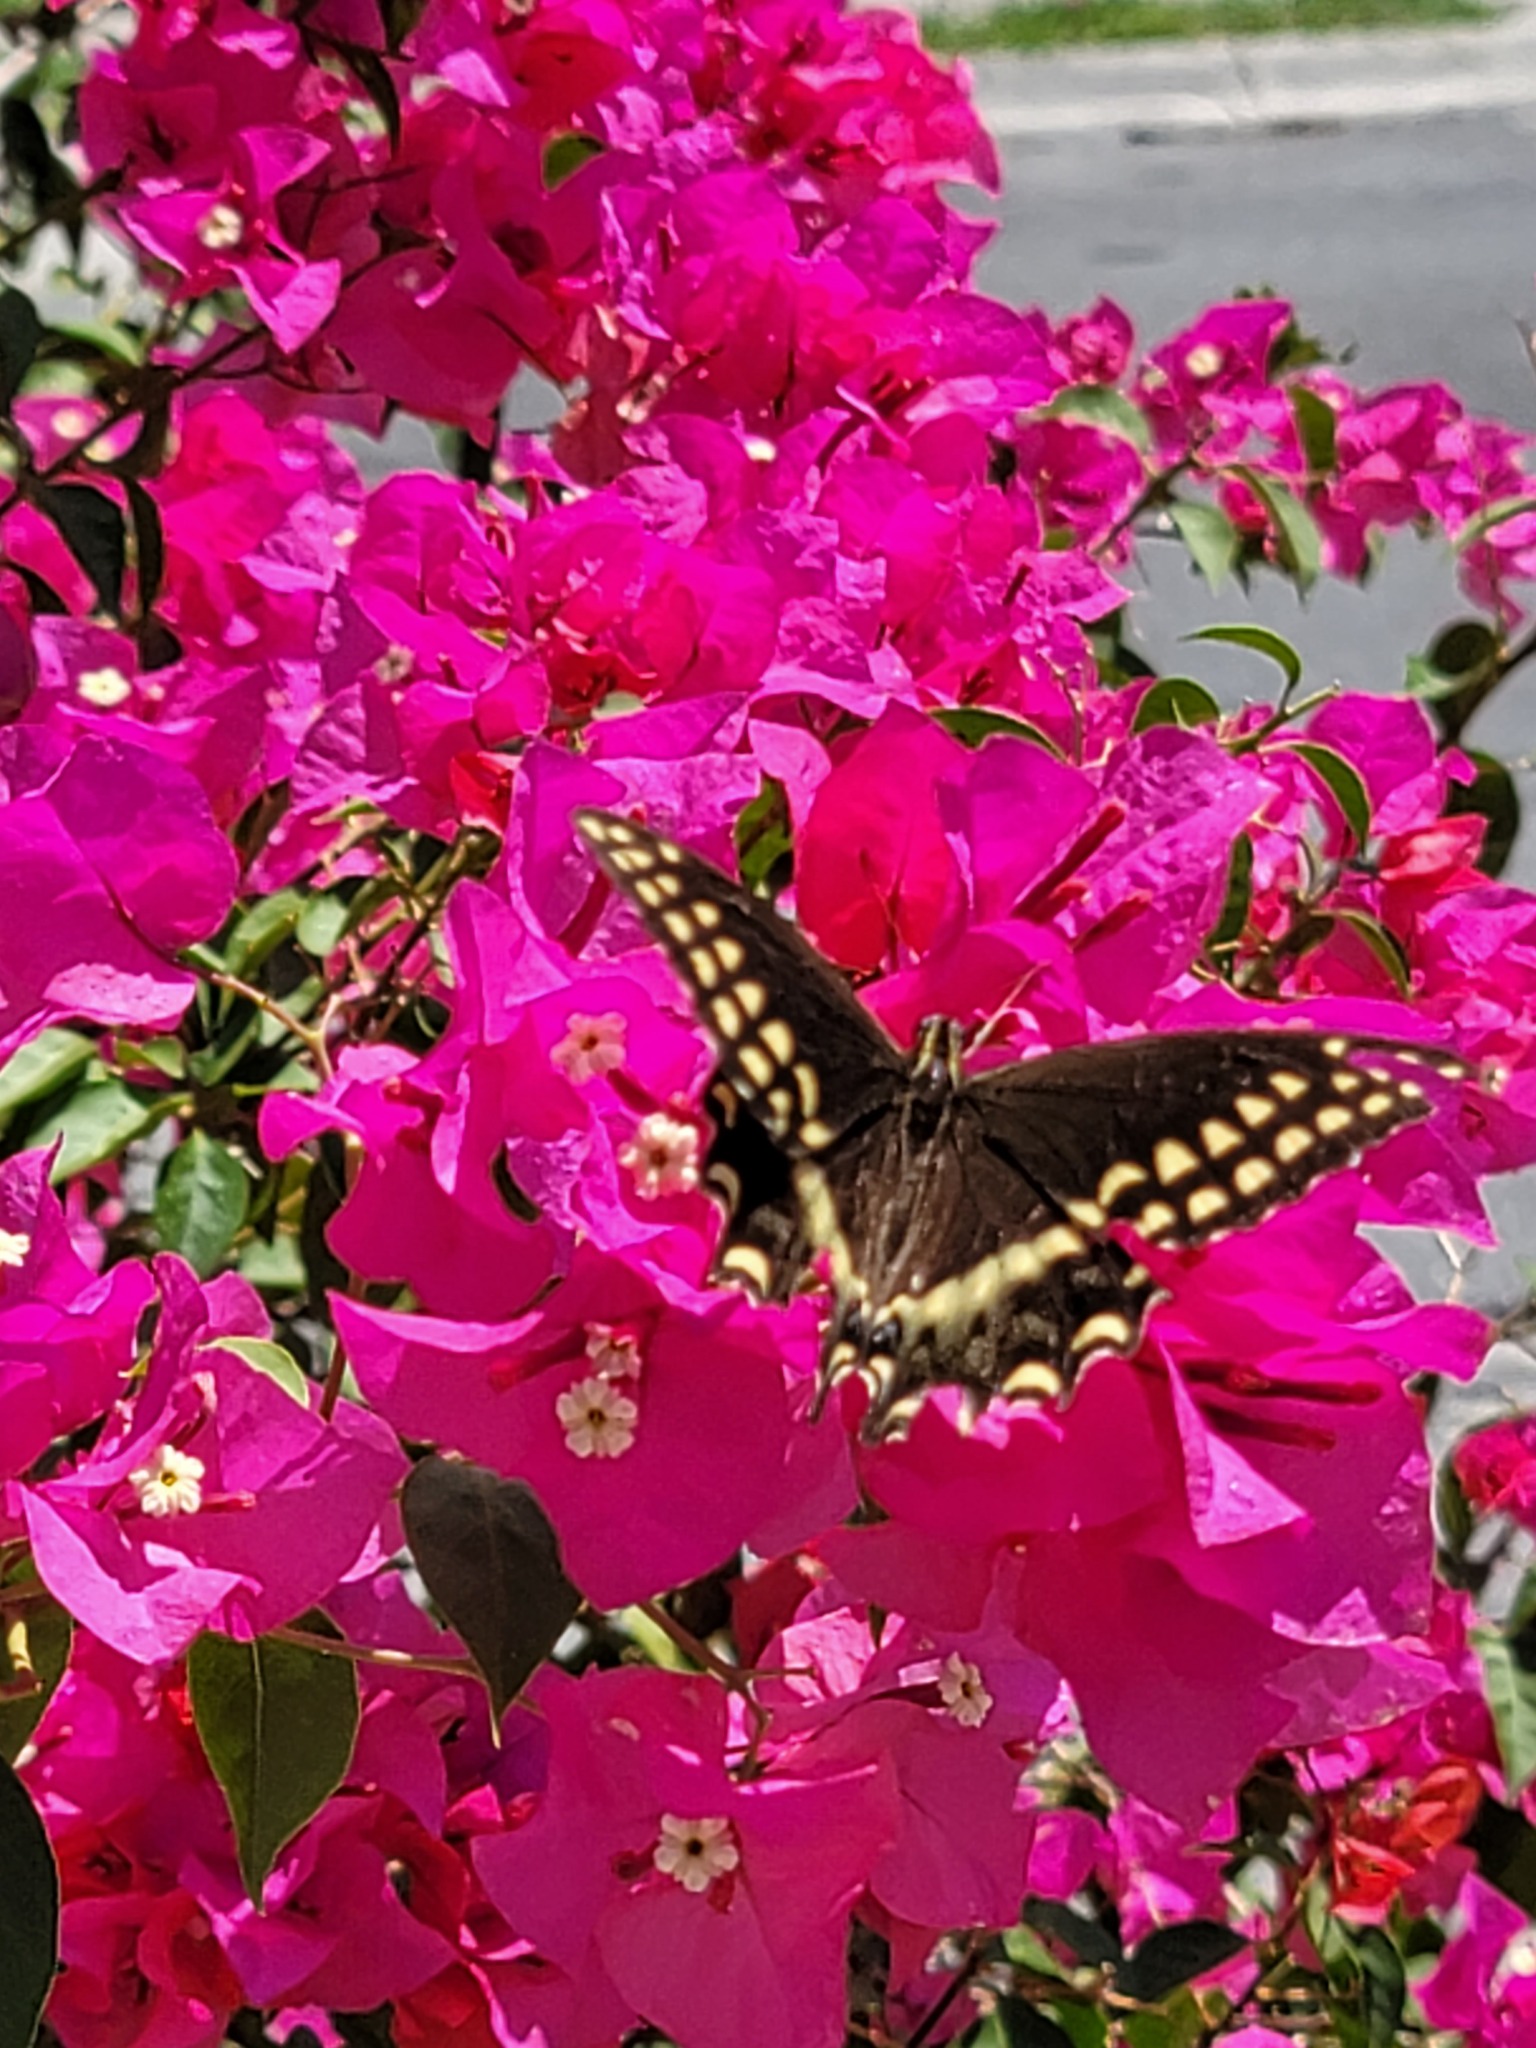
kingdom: Animalia
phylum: Arthropoda
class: Insecta
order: Lepidoptera
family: Papilionidae
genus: Papilio
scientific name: Papilio palamedes
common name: Palamedes swallowtail
